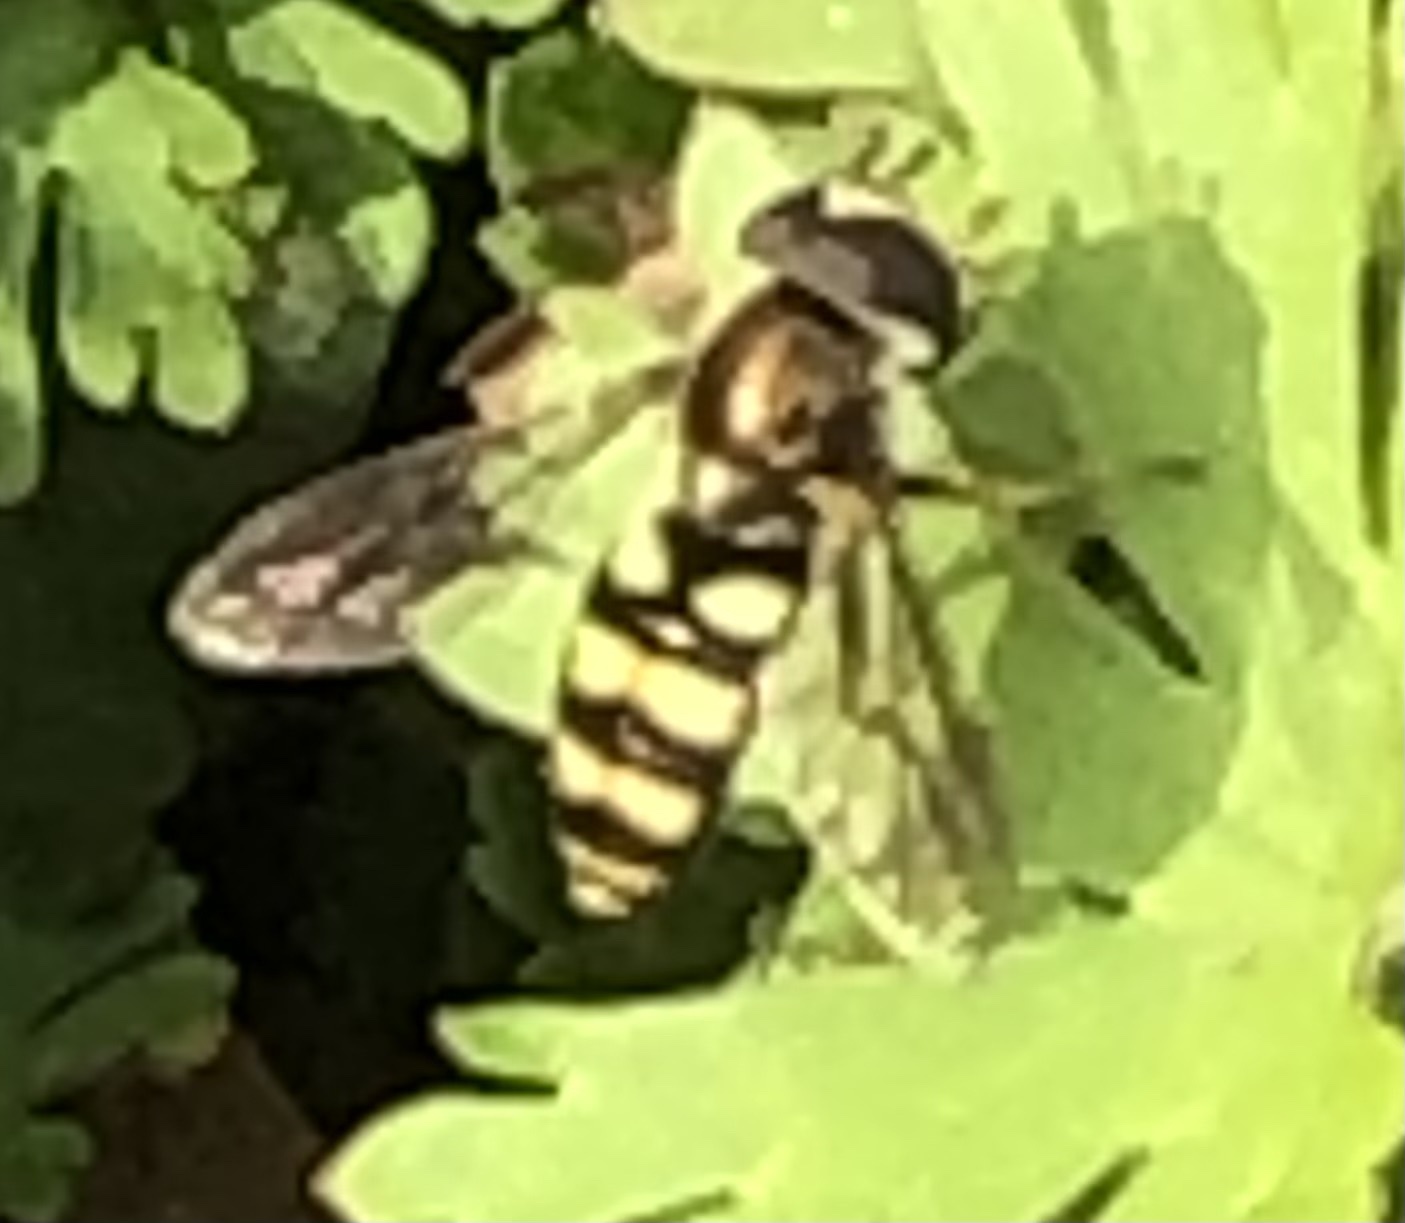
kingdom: Animalia
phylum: Arthropoda
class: Insecta
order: Diptera
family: Syrphidae
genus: Eupeodes
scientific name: Eupeodes
